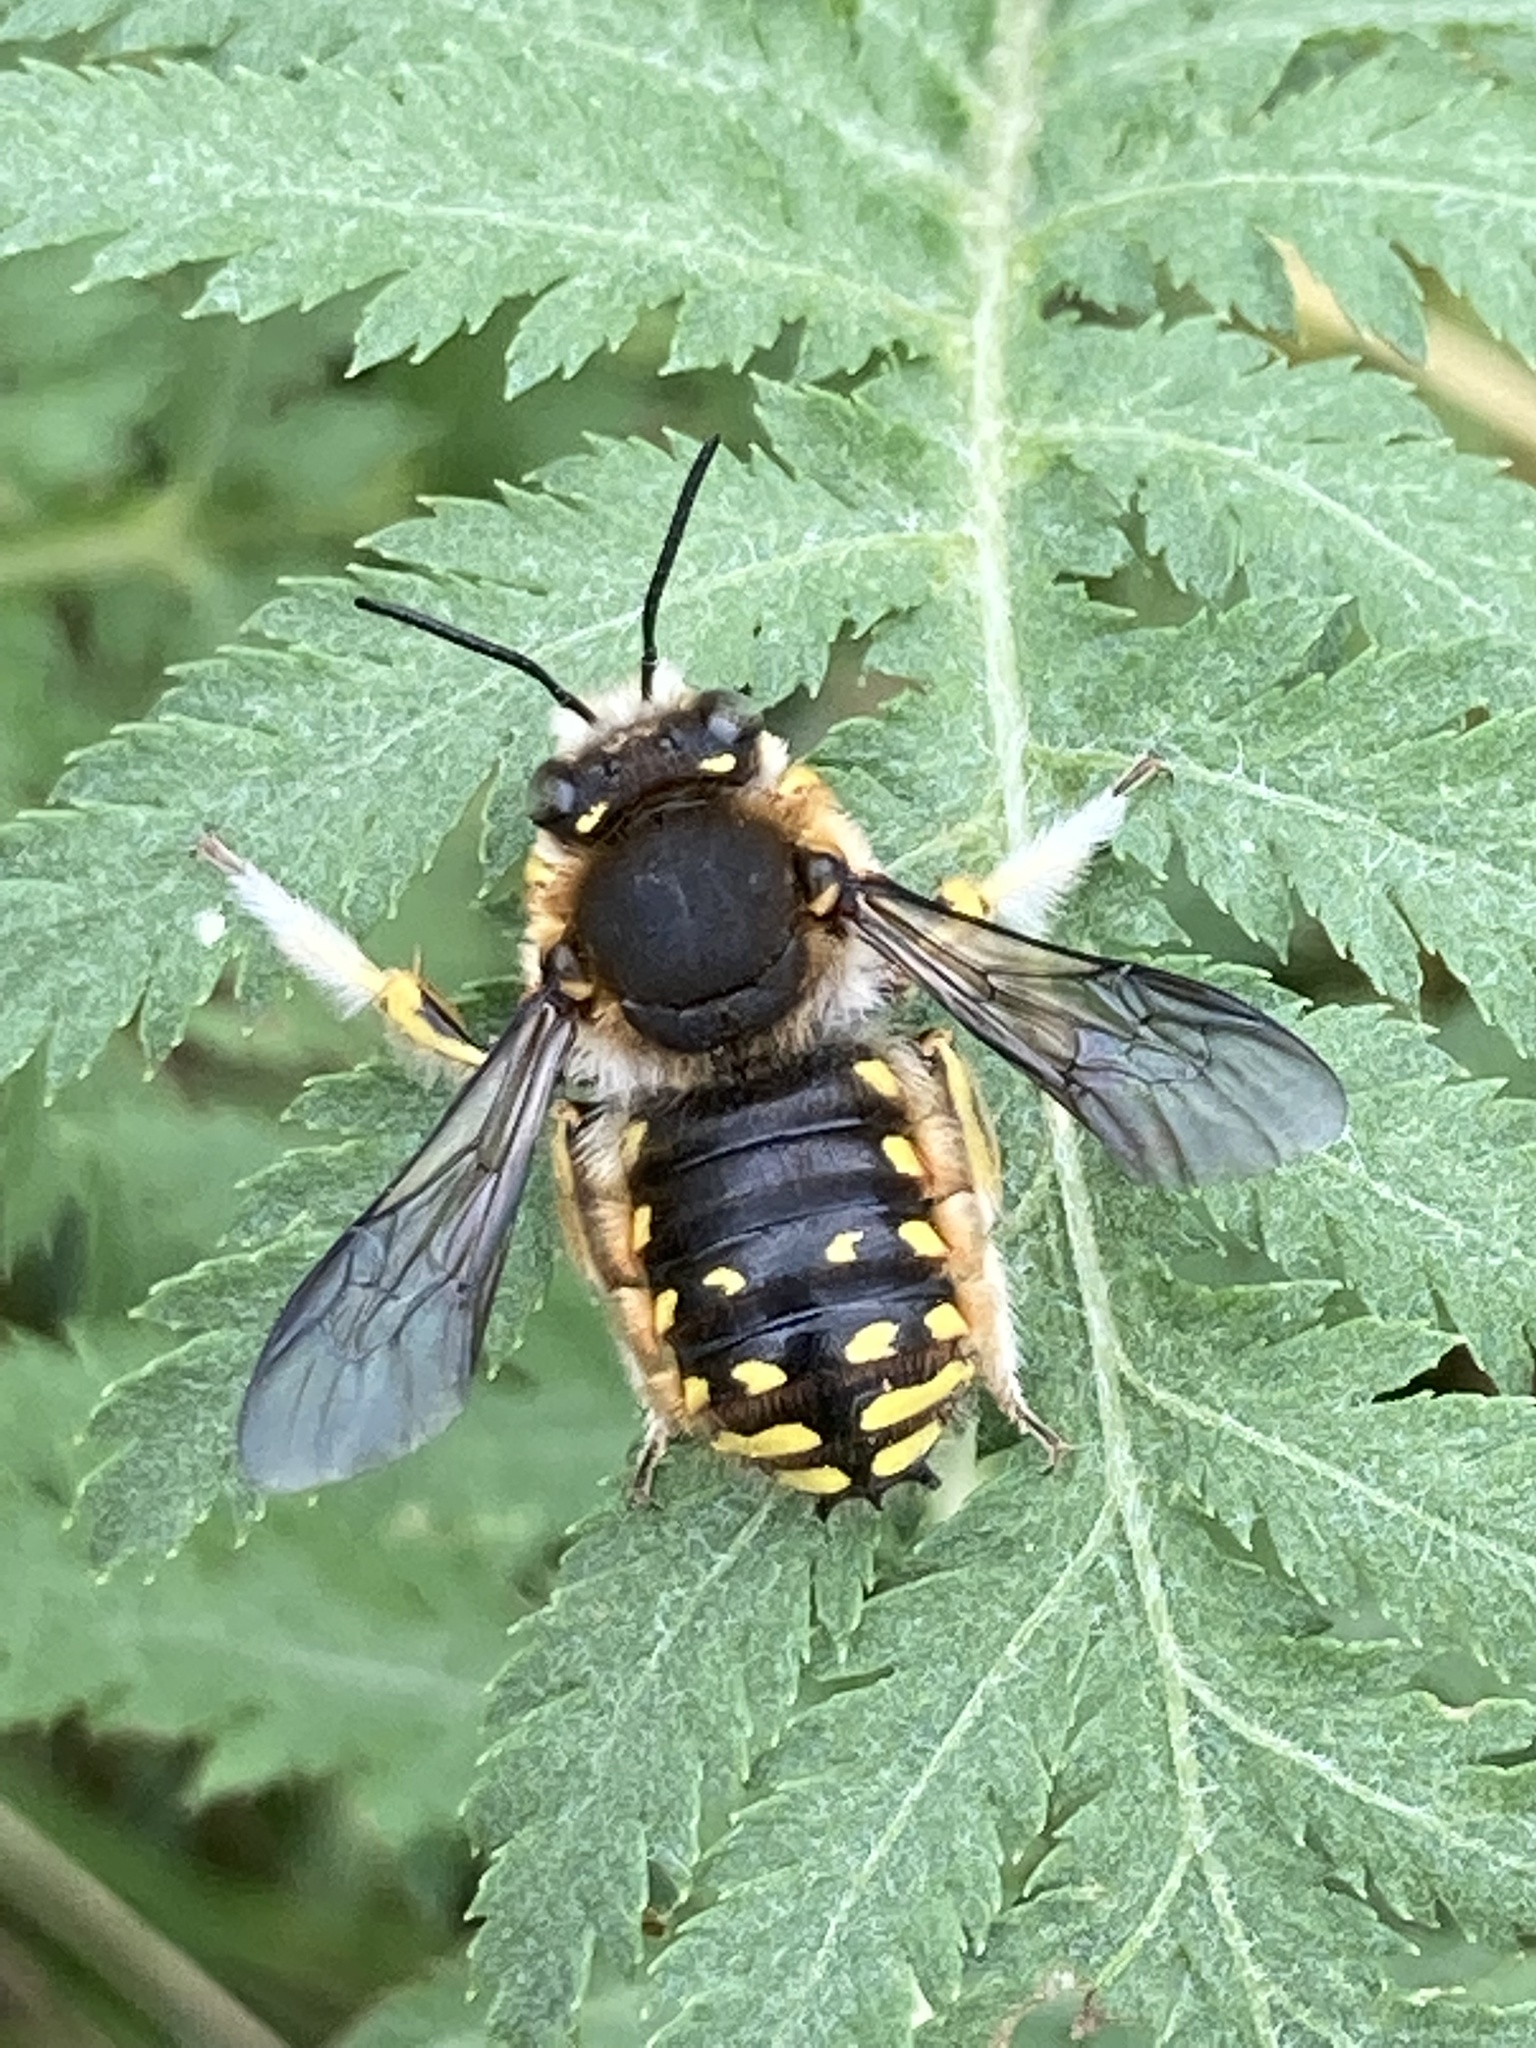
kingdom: Animalia
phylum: Arthropoda
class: Insecta
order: Hymenoptera
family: Megachilidae
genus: Anthidium
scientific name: Anthidium manicatum
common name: Wool carder bee
